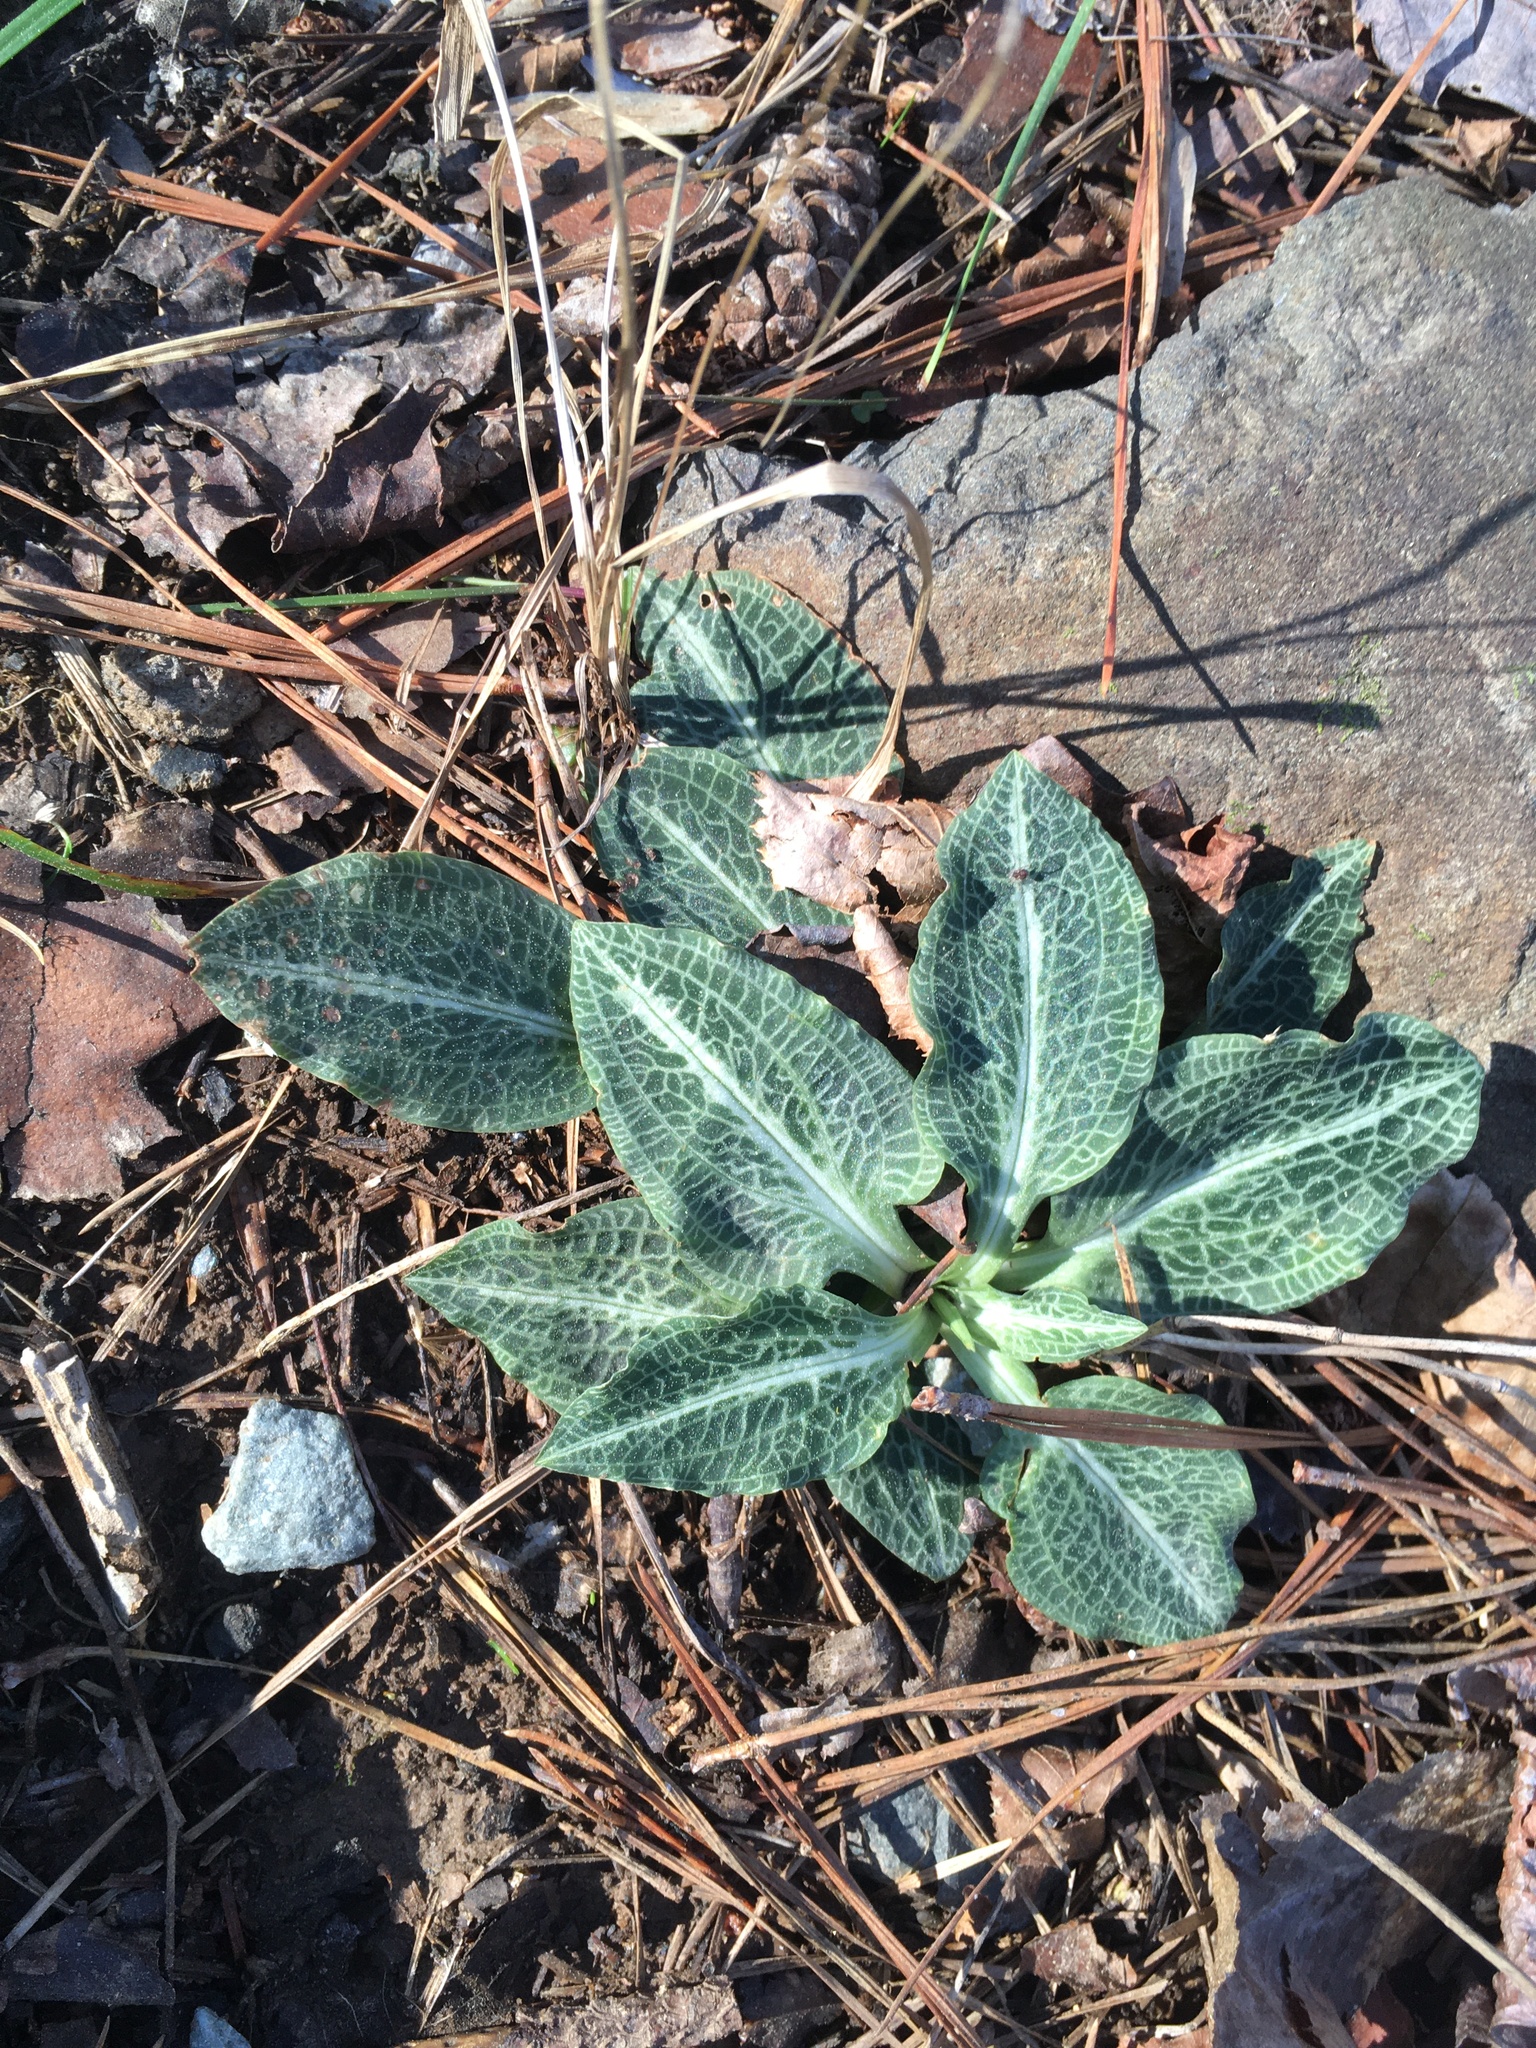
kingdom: Plantae
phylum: Tracheophyta
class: Liliopsida
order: Asparagales
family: Orchidaceae
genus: Goodyera
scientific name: Goodyera pubescens
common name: Downy rattlesnake-plantain
